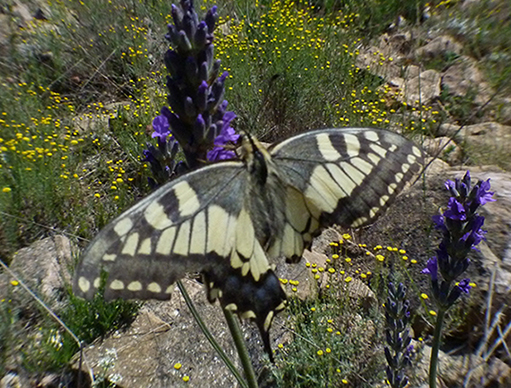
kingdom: Animalia
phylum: Arthropoda
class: Insecta
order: Lepidoptera
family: Papilionidae
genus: Papilio
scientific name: Papilio machaon
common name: Swallowtail
